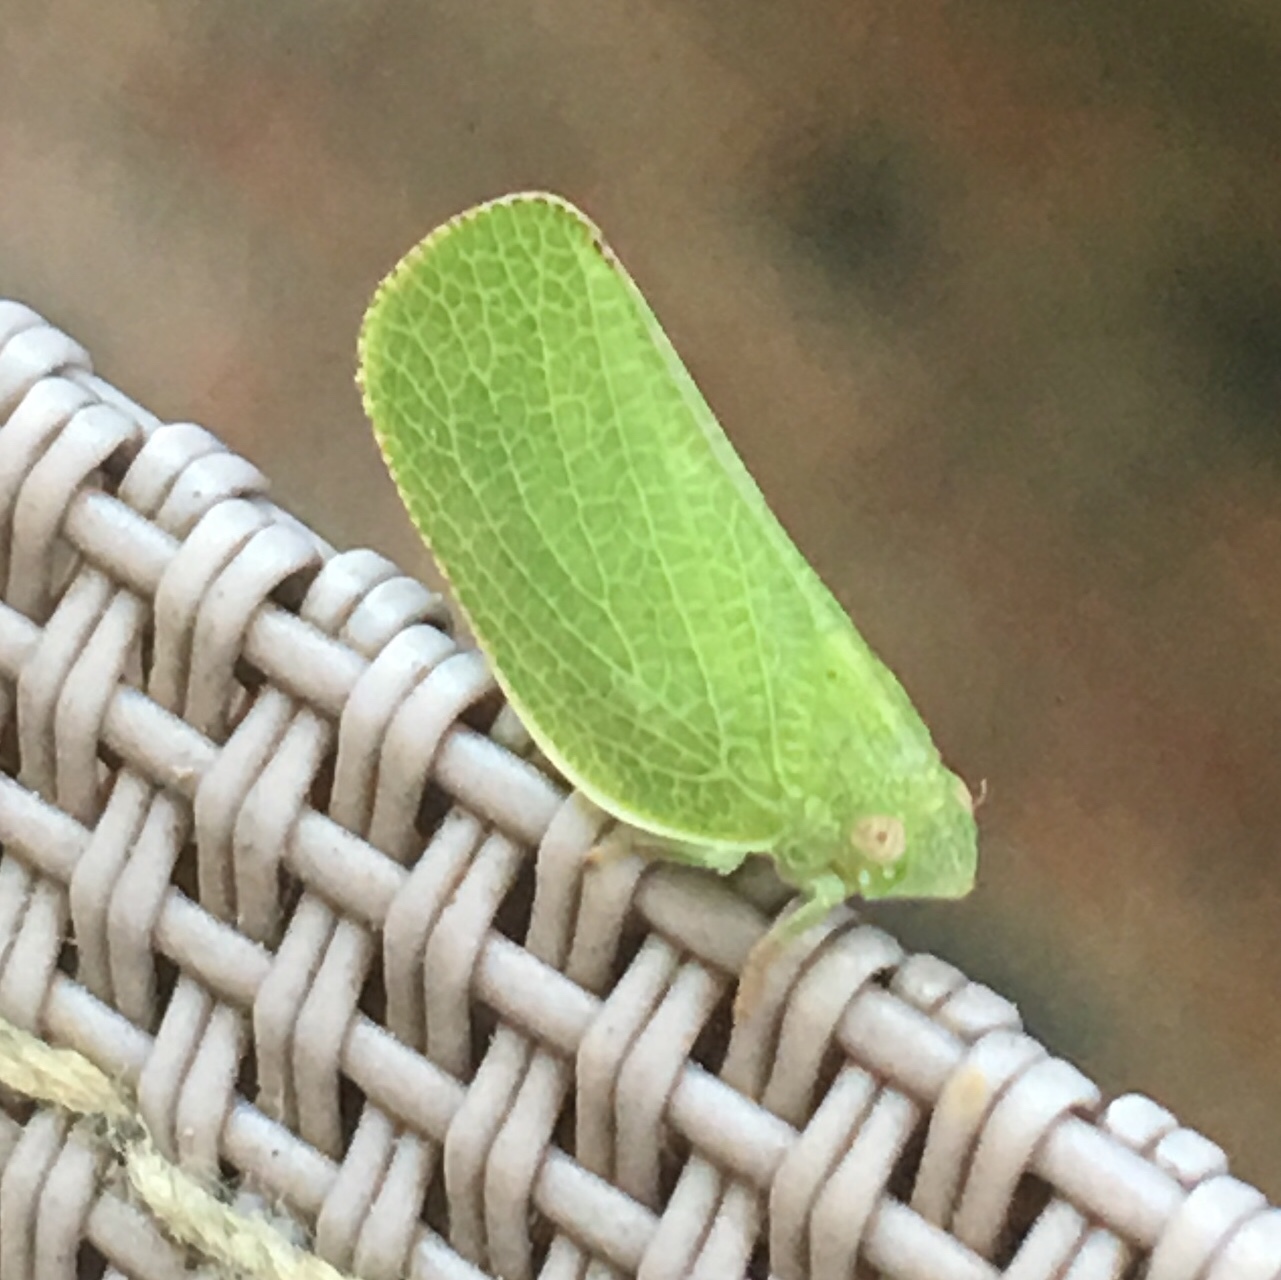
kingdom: Animalia
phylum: Arthropoda
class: Insecta
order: Hemiptera
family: Acanaloniidae
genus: Acanalonia
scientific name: Acanalonia conica
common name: Green cone-headed planthopper
